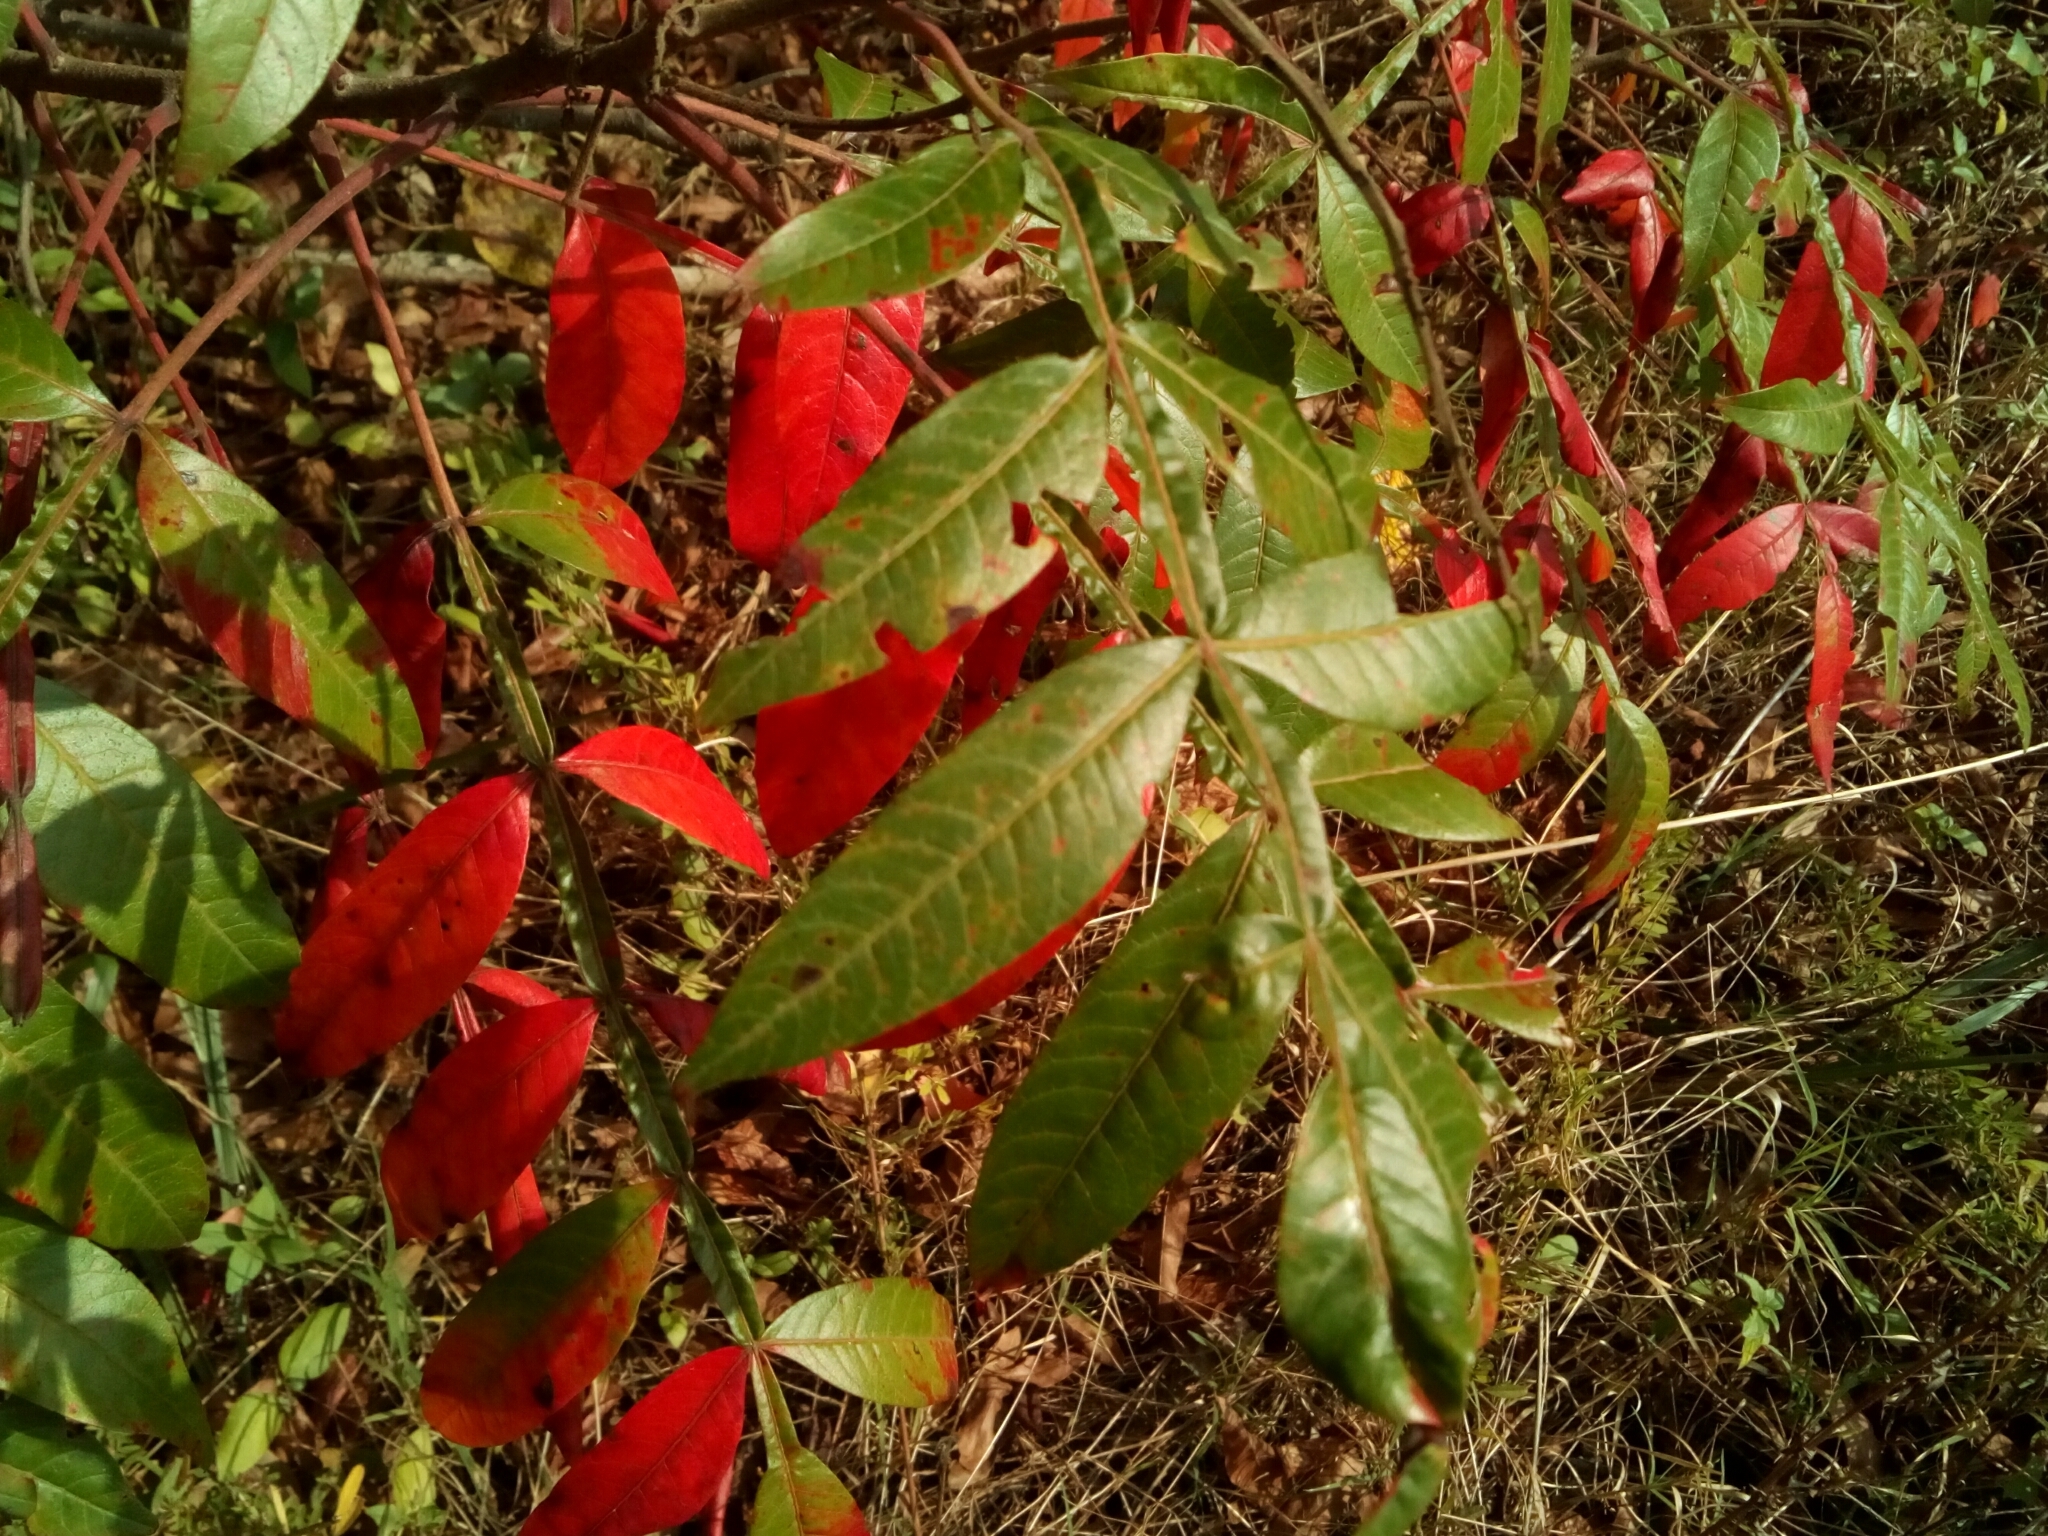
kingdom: Plantae
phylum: Tracheophyta
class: Magnoliopsida
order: Sapindales
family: Anacardiaceae
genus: Rhus
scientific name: Rhus copallina
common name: Shining sumac
